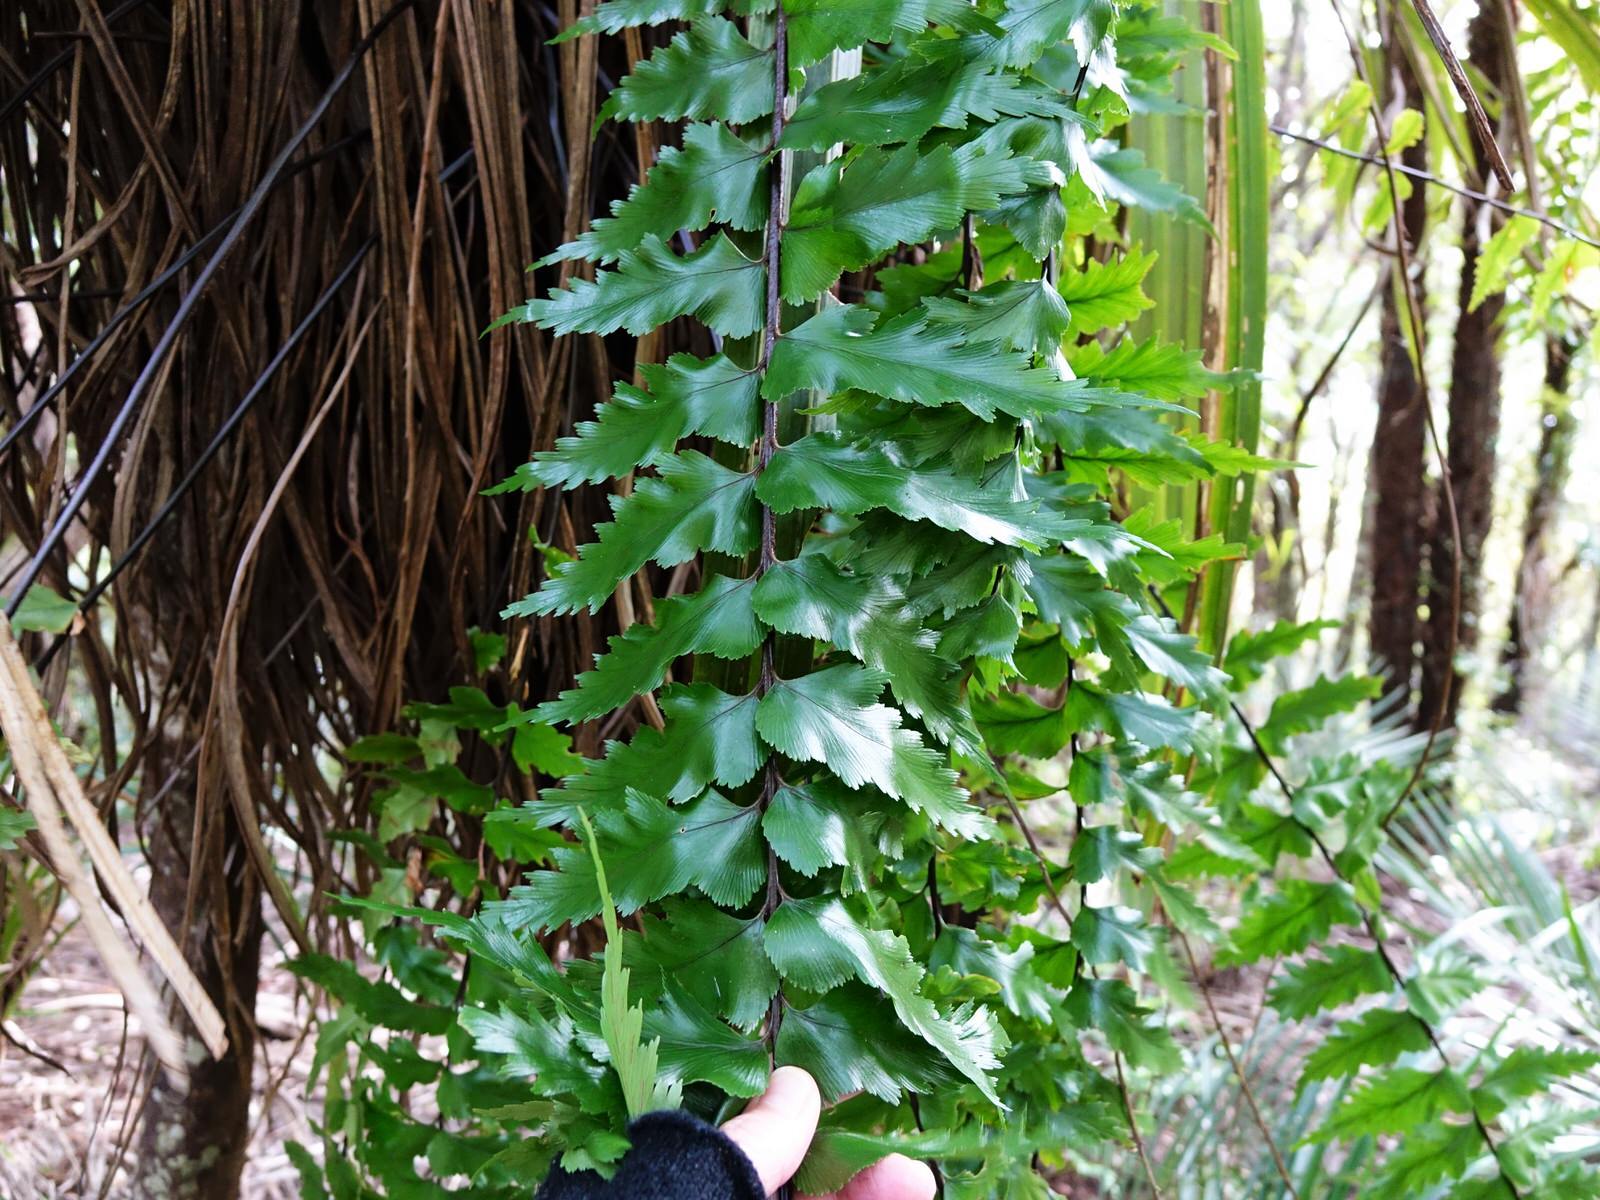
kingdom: Plantae
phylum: Tracheophyta
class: Polypodiopsida
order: Polypodiales
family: Aspleniaceae
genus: Asplenium
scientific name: Asplenium polyodon
